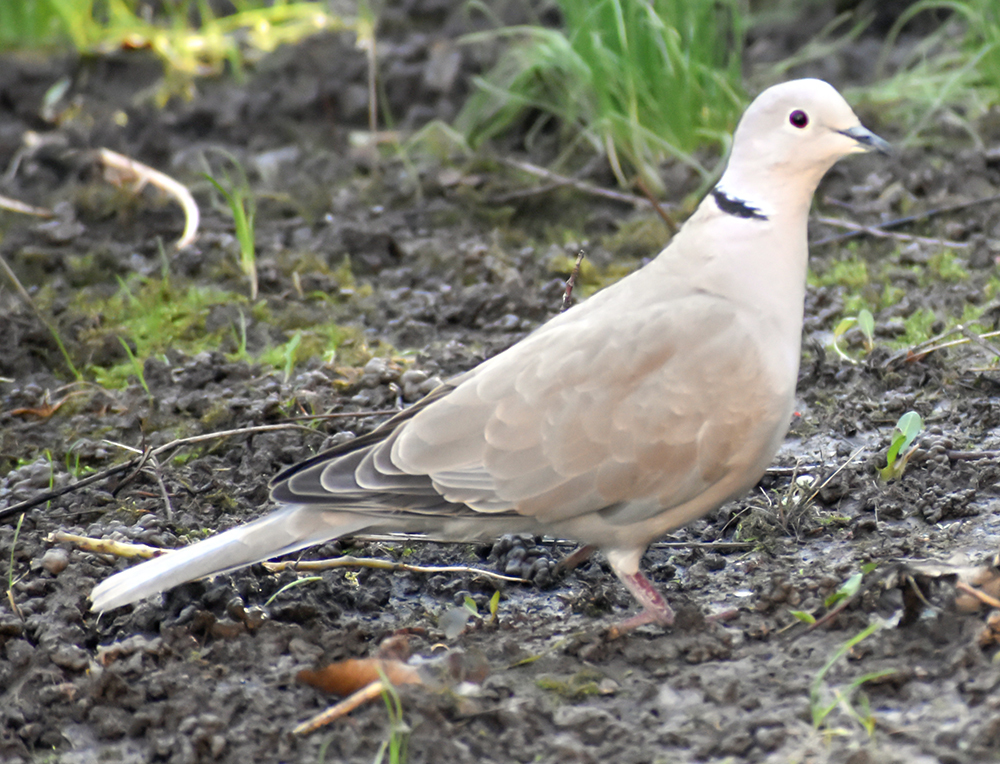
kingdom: Animalia
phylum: Chordata
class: Aves
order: Columbiformes
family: Columbidae
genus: Streptopelia
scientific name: Streptopelia decaocto
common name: Eurasian collared dove
